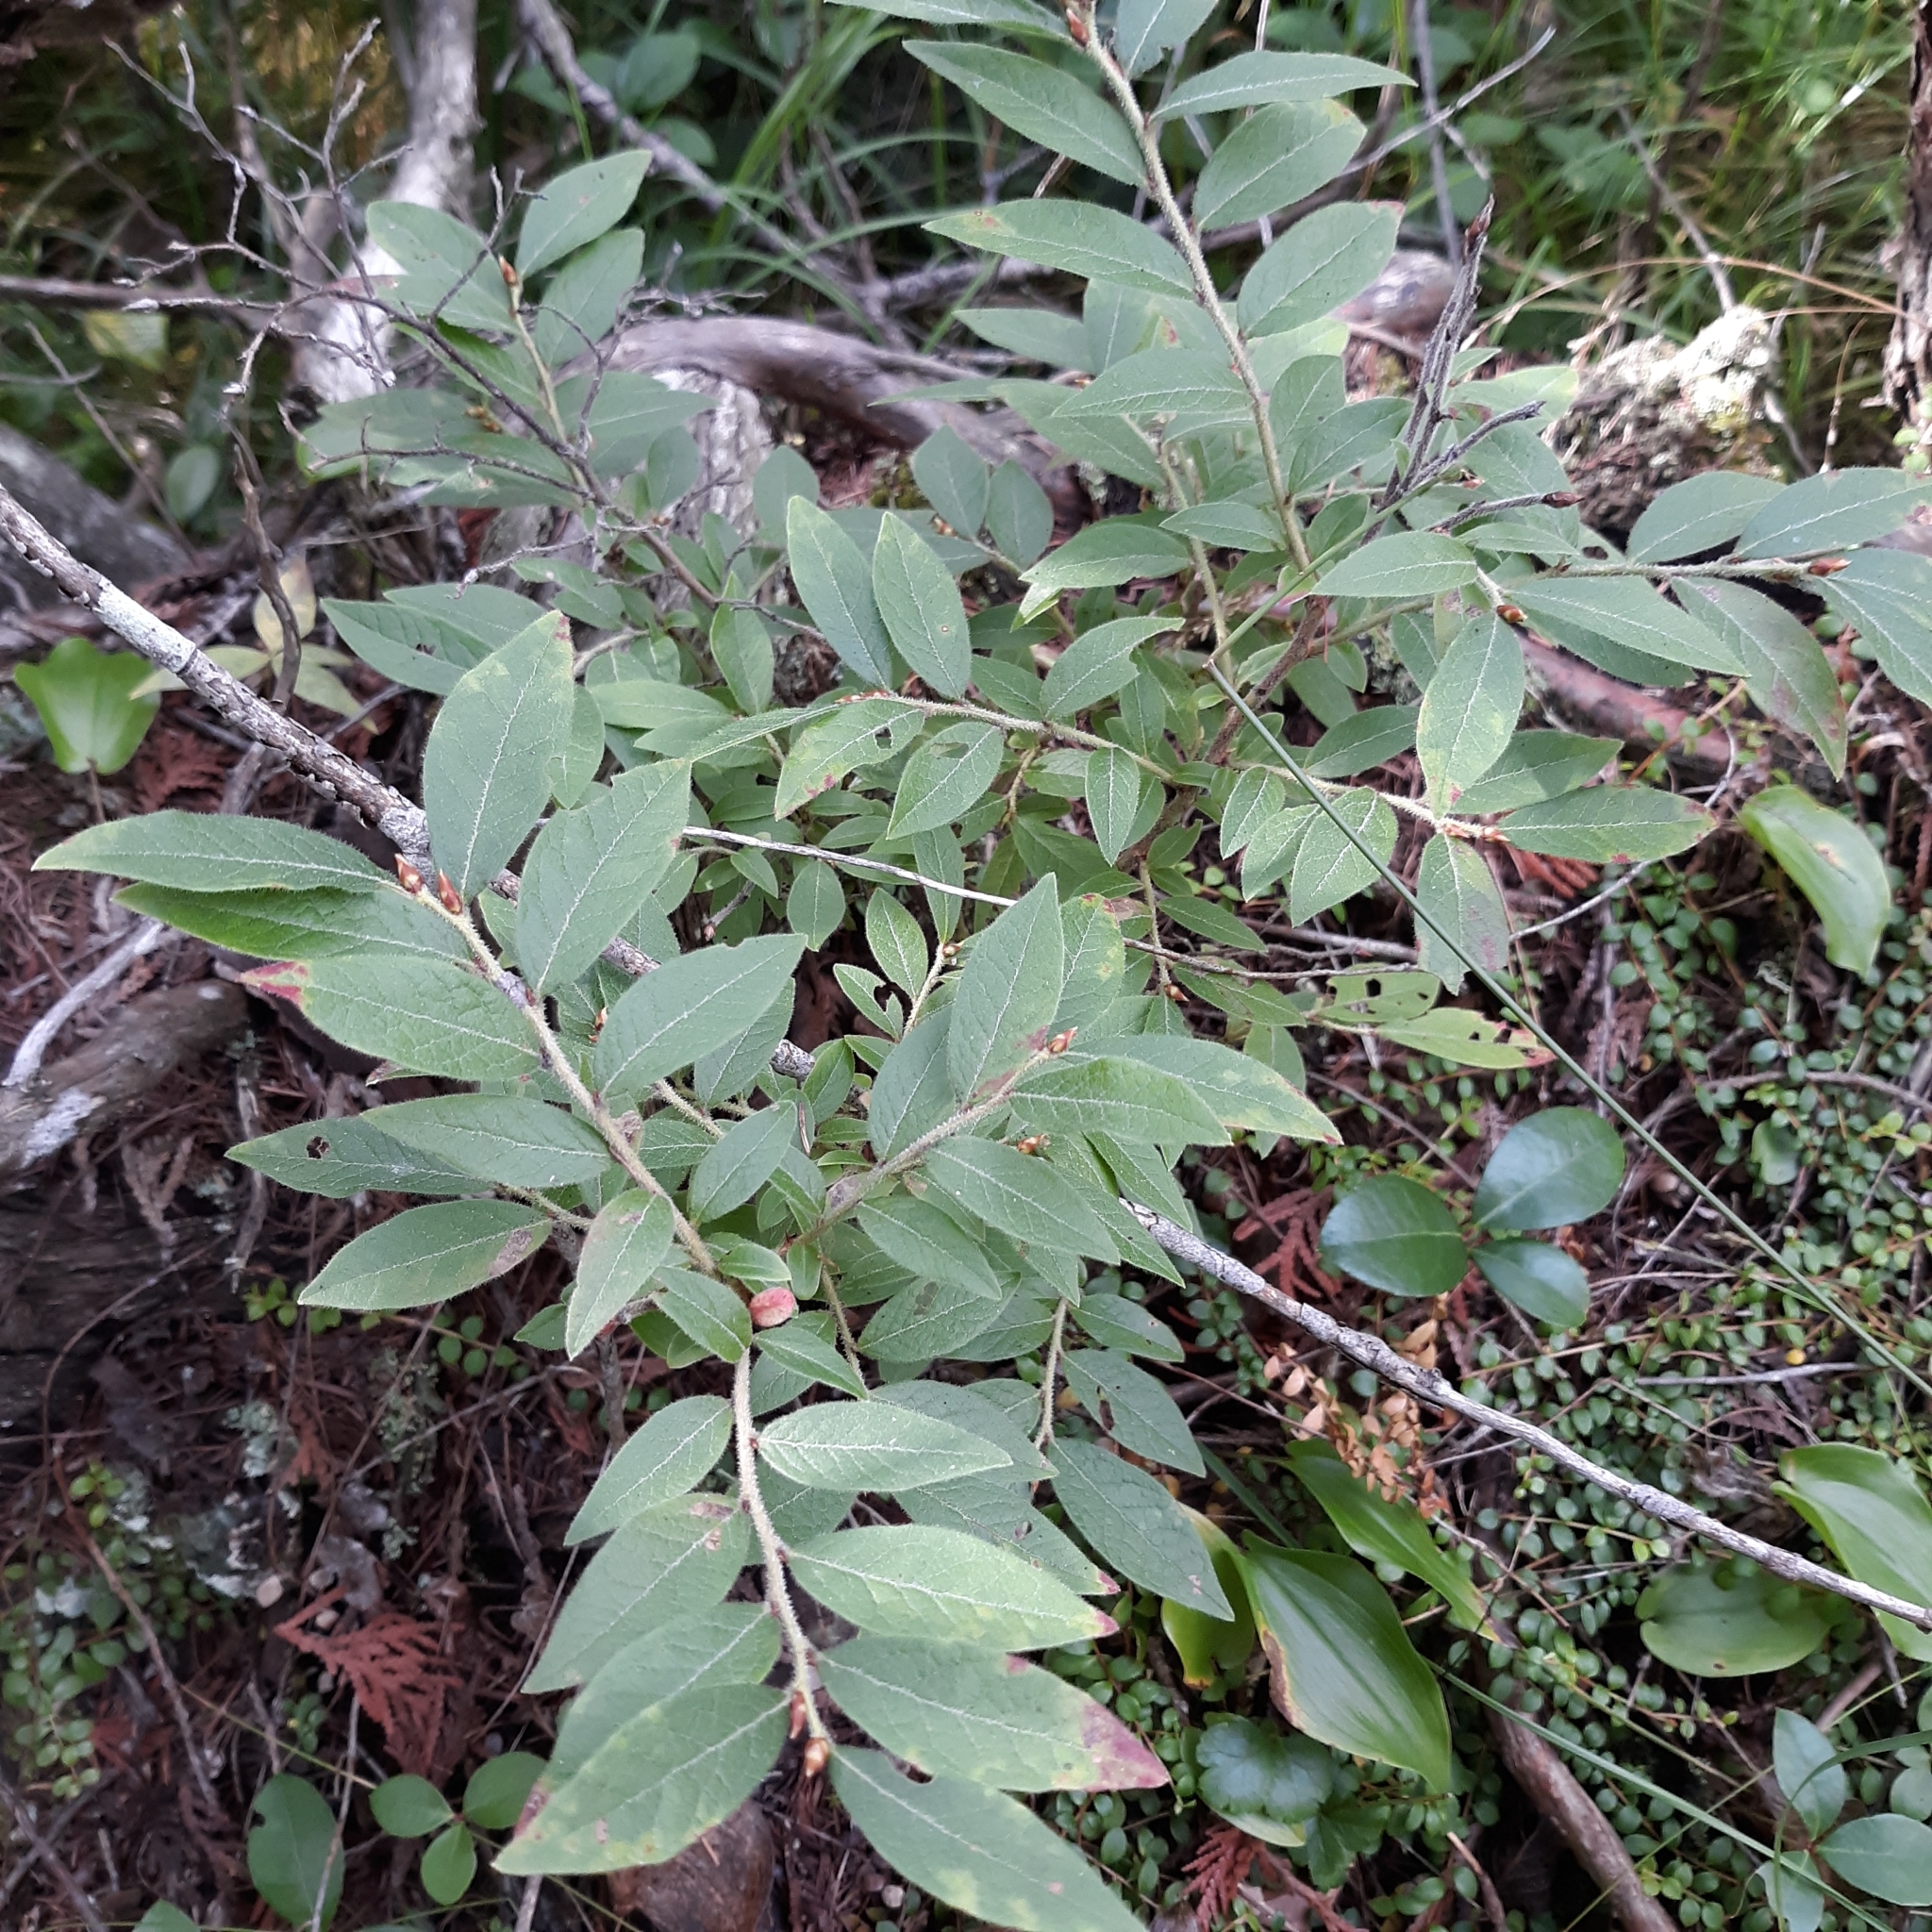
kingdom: Plantae
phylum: Tracheophyta
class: Magnoliopsida
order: Ericales
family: Ericaceae
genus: Vaccinium
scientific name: Vaccinium myrtilloides
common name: Canada blueberry
